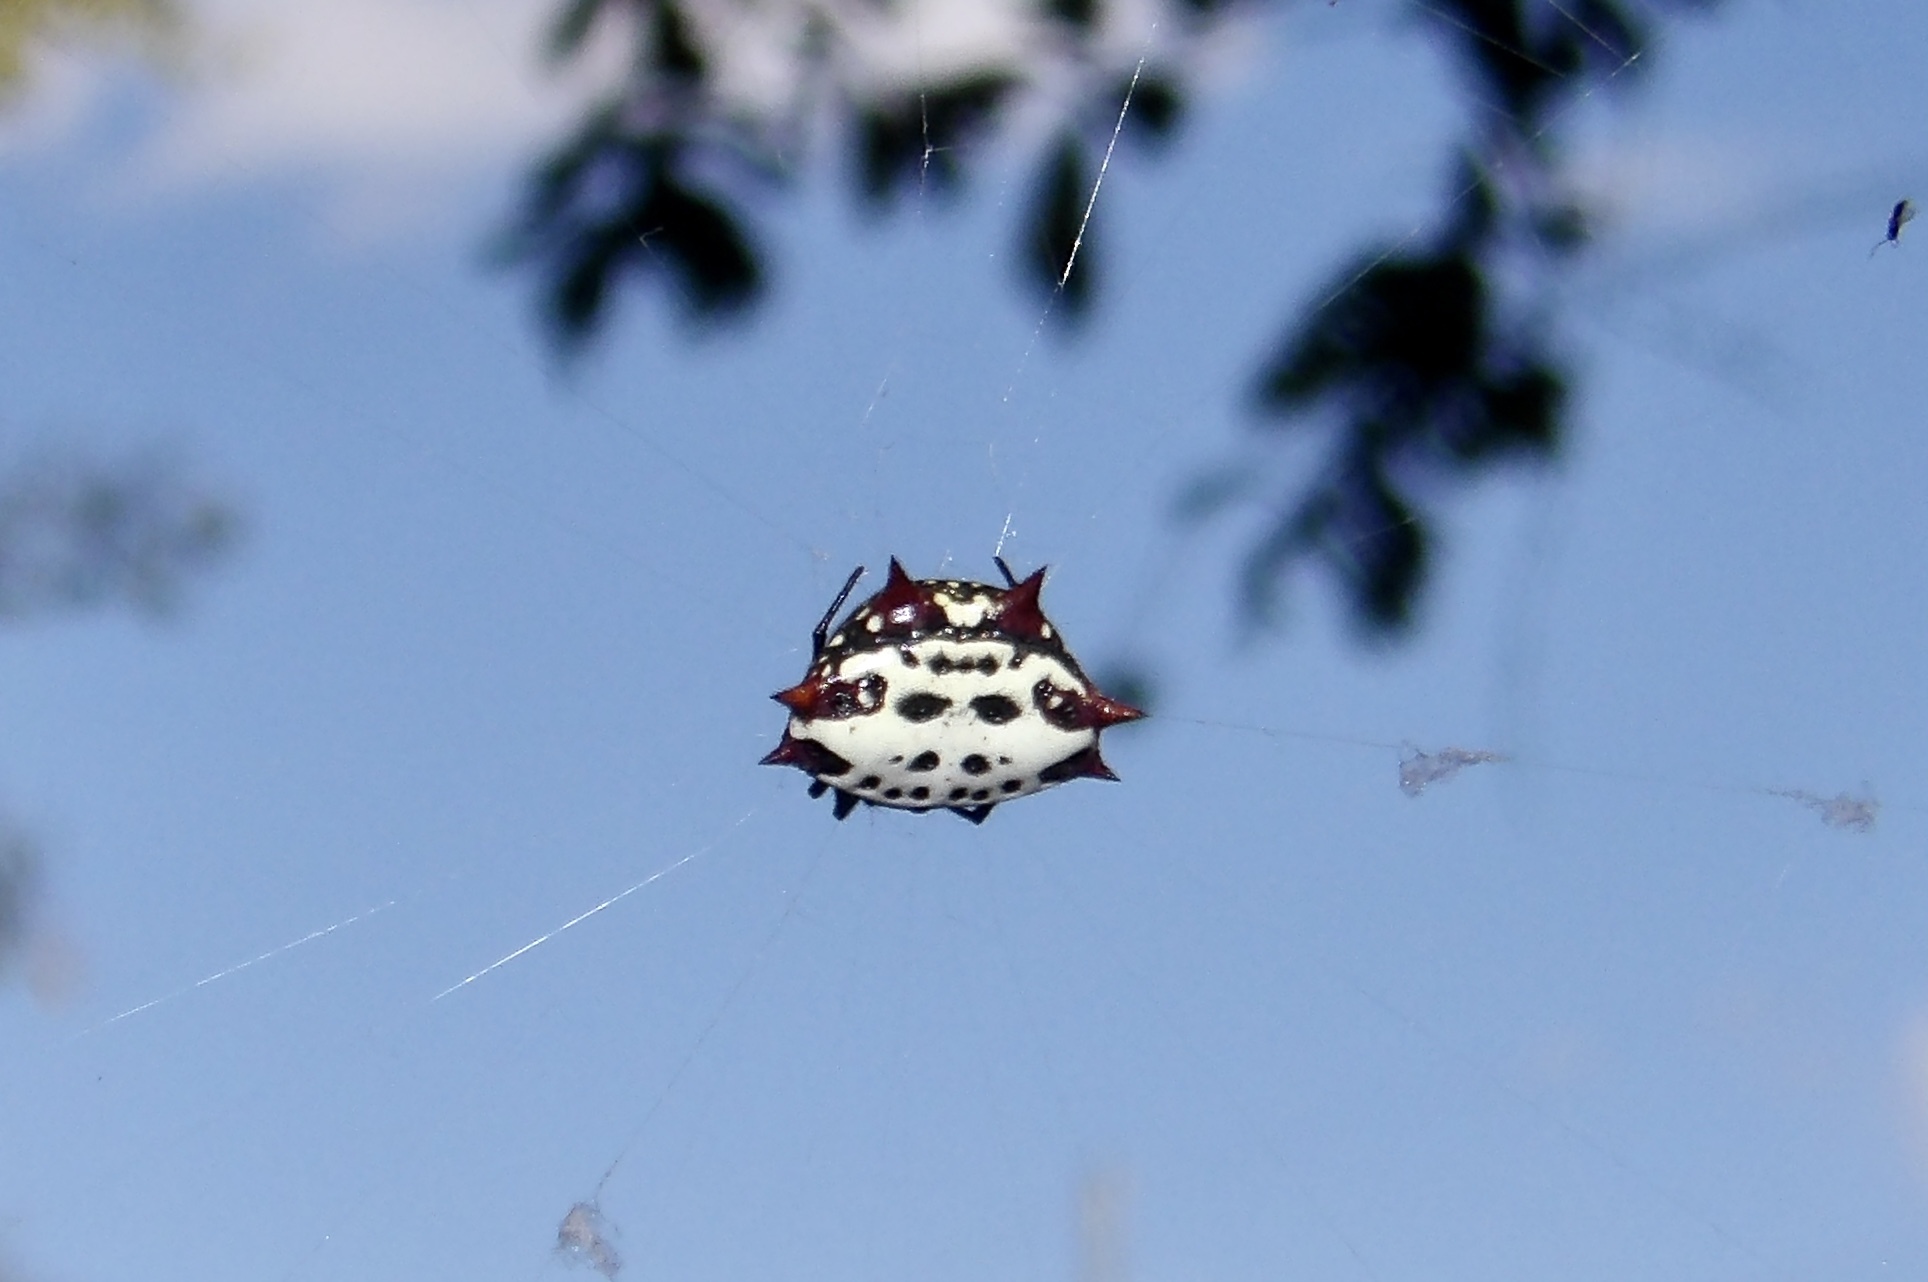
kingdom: Animalia
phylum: Arthropoda
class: Arachnida
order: Araneae
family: Araneidae
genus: Gasteracantha
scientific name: Gasteracantha cancriformis
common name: Orb weavers
